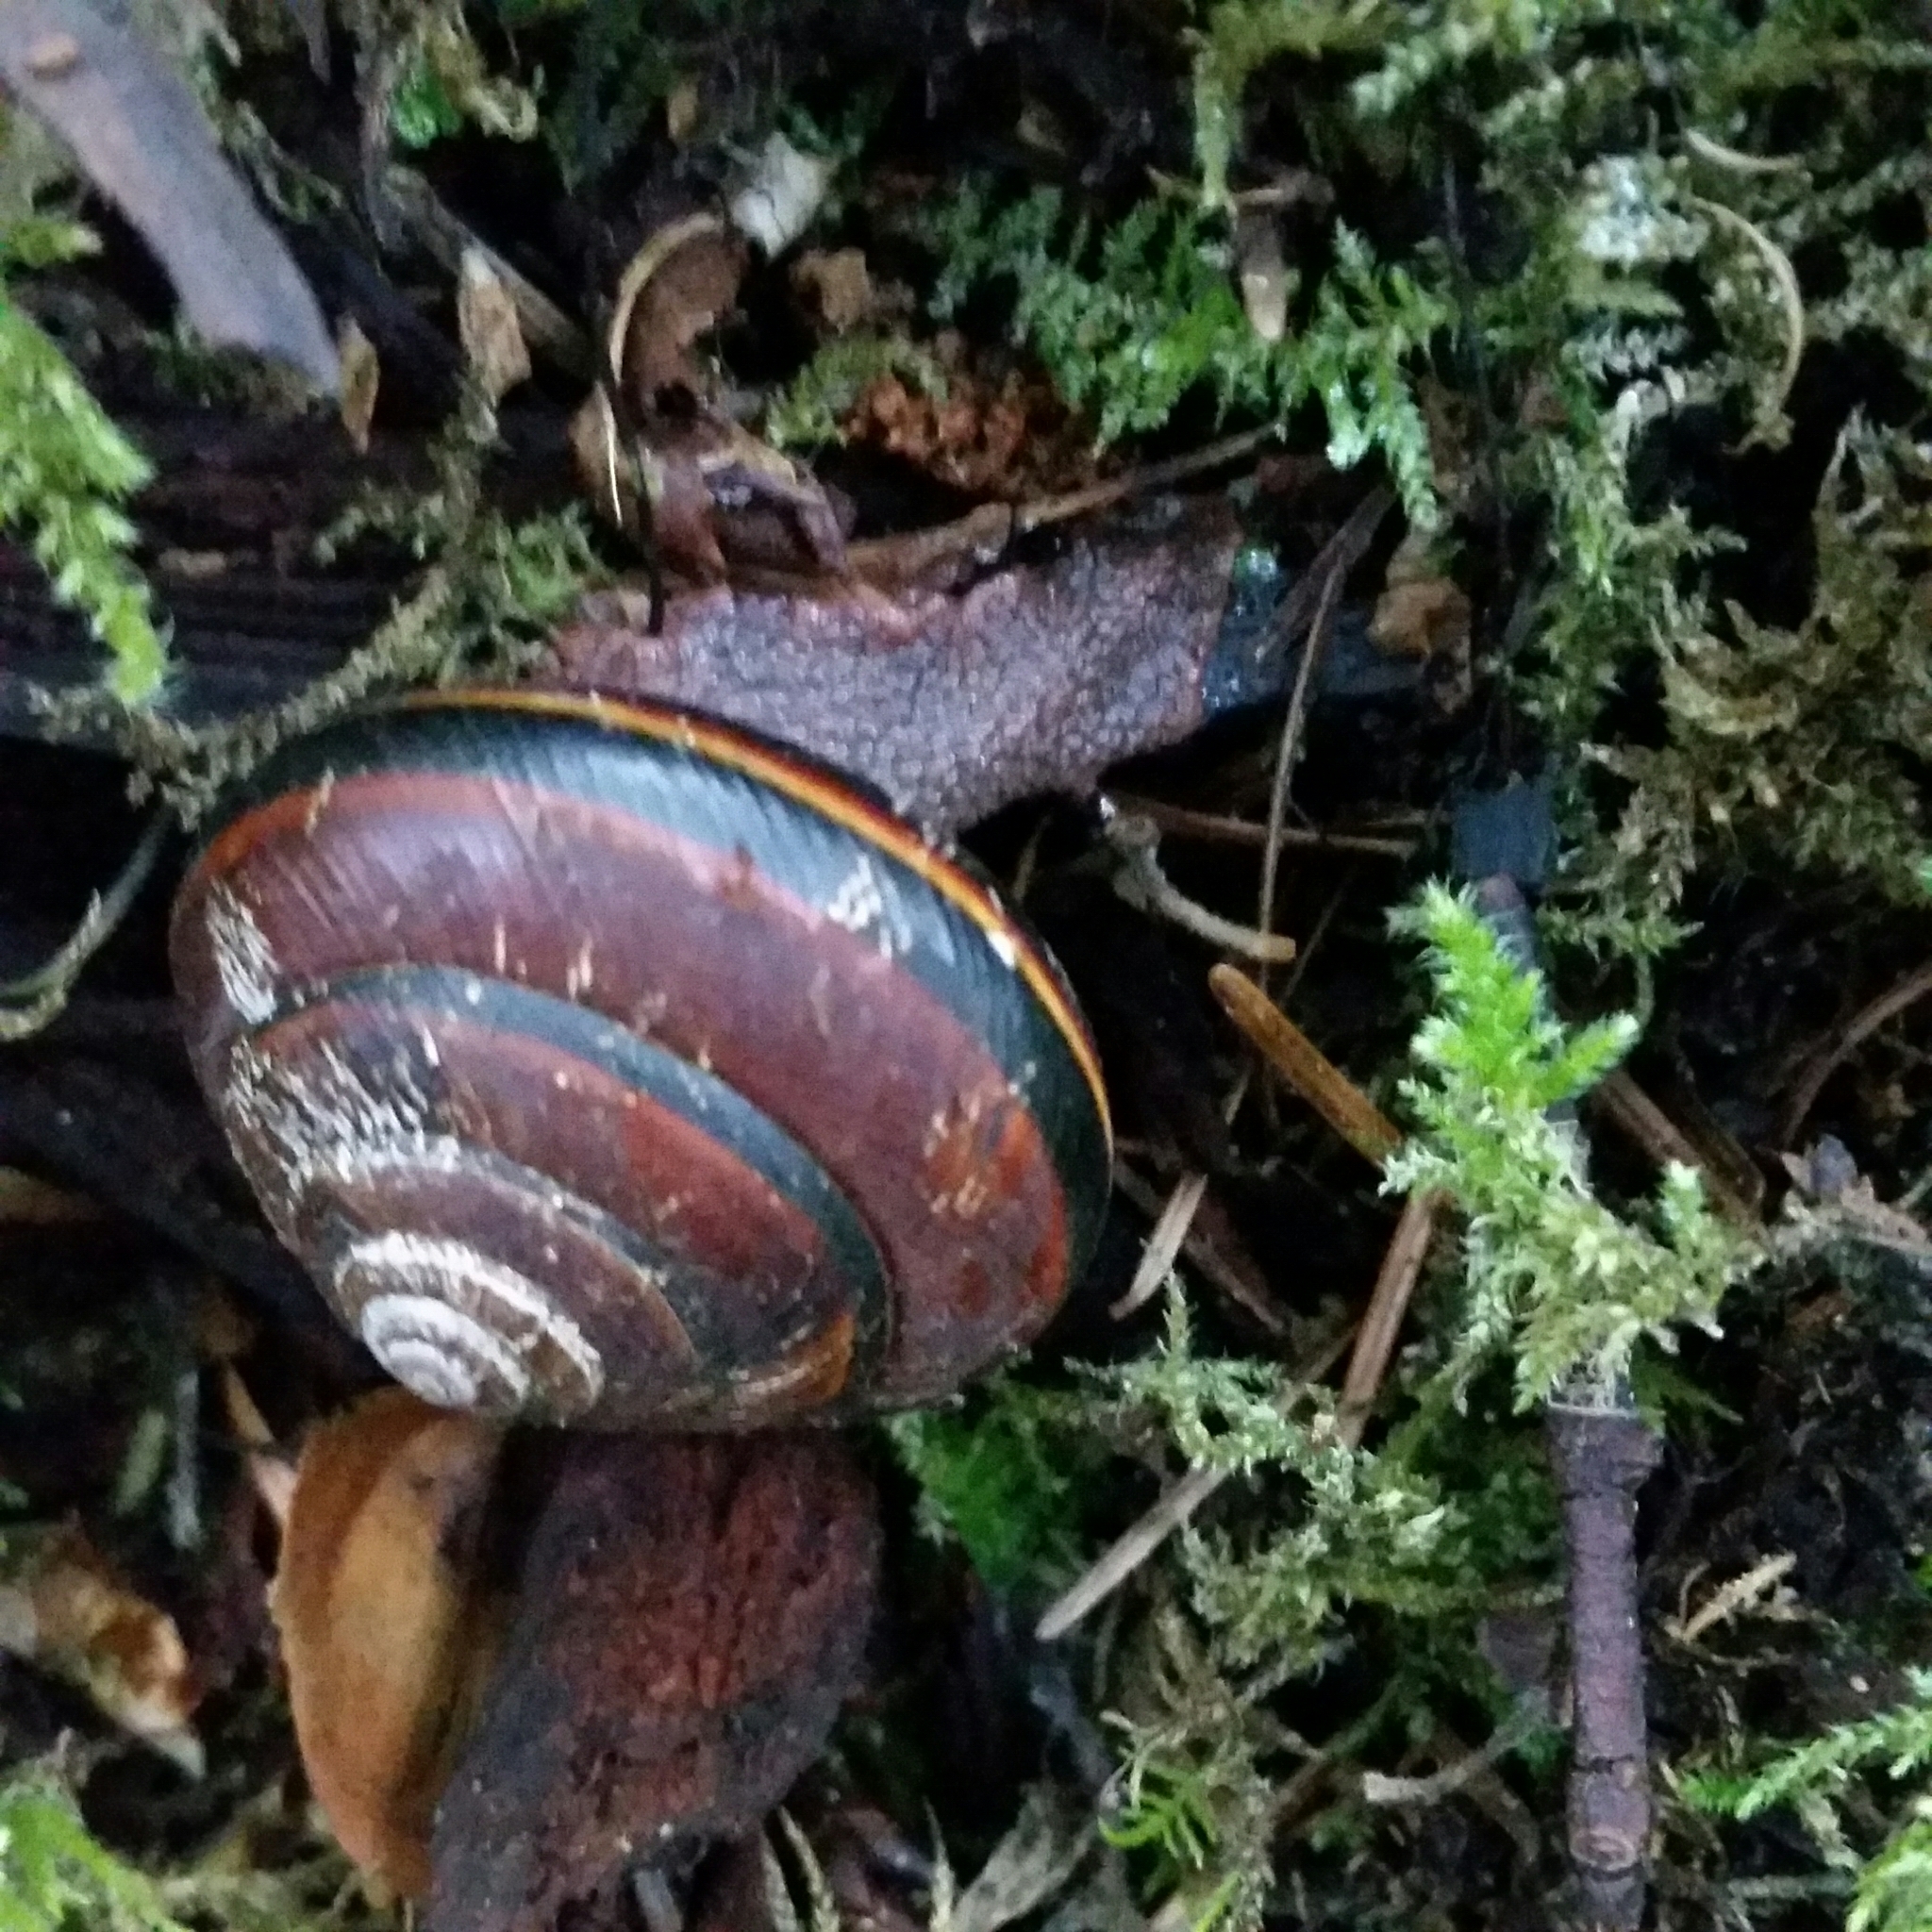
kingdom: Animalia
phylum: Mollusca
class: Gastropoda
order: Stylommatophora
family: Xanthonychidae
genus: Monadenia
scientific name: Monadenia fidelis
